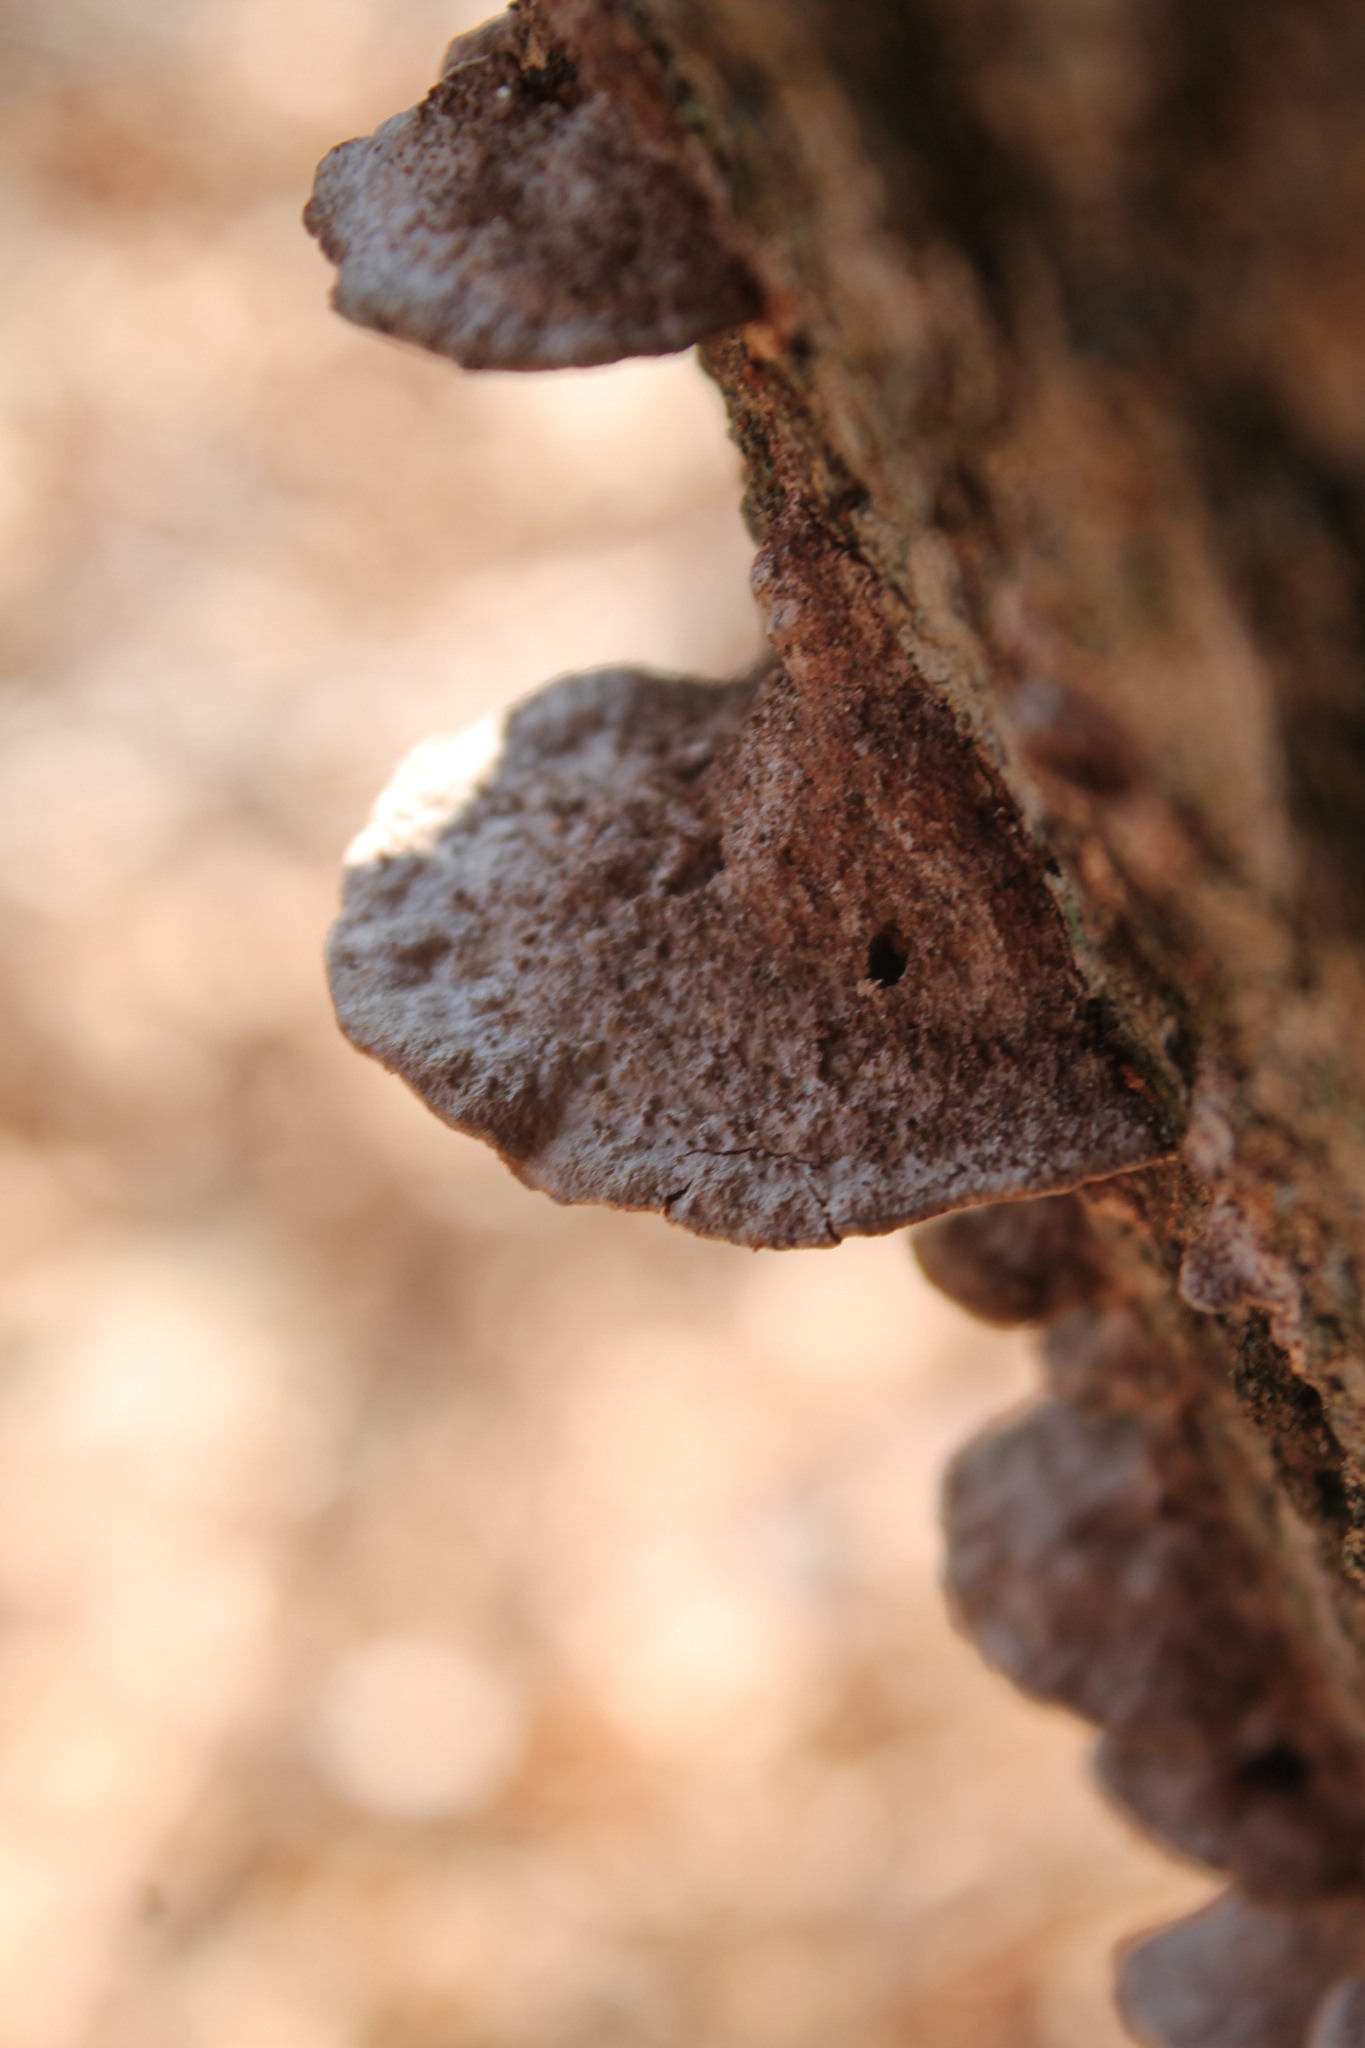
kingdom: Fungi
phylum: Basidiomycota
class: Agaricomycetes
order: Hymenochaetales
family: Hymenochaetaceae
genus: Phellinus
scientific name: Phellinus gilvus
